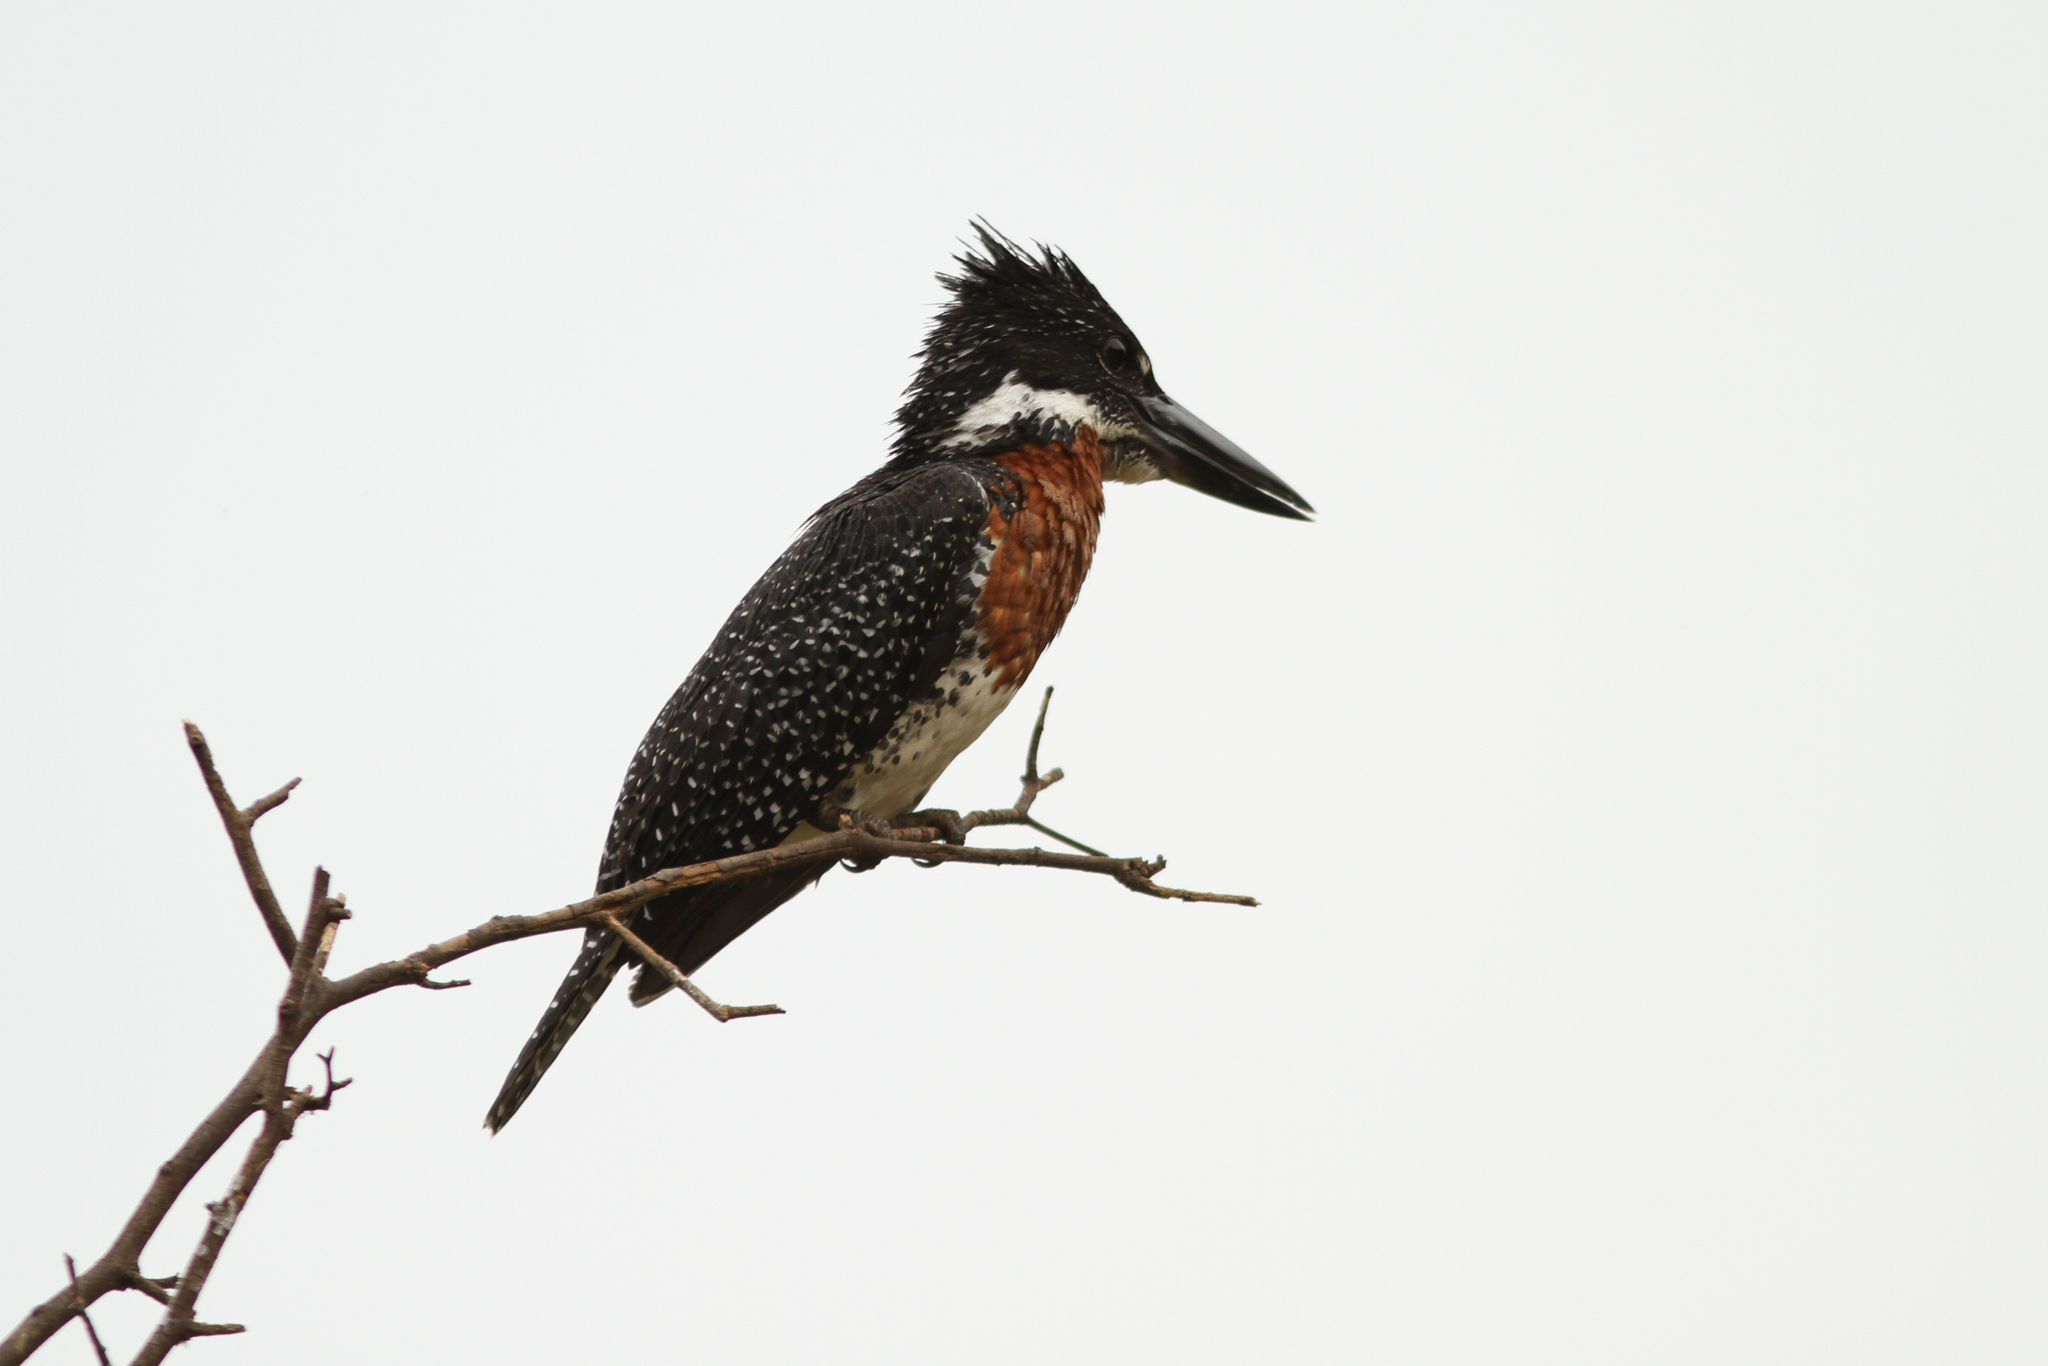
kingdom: Animalia
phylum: Chordata
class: Aves
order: Coraciiformes
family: Alcedinidae
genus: Megaceryle
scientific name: Megaceryle maxima
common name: Giant kingfisher
